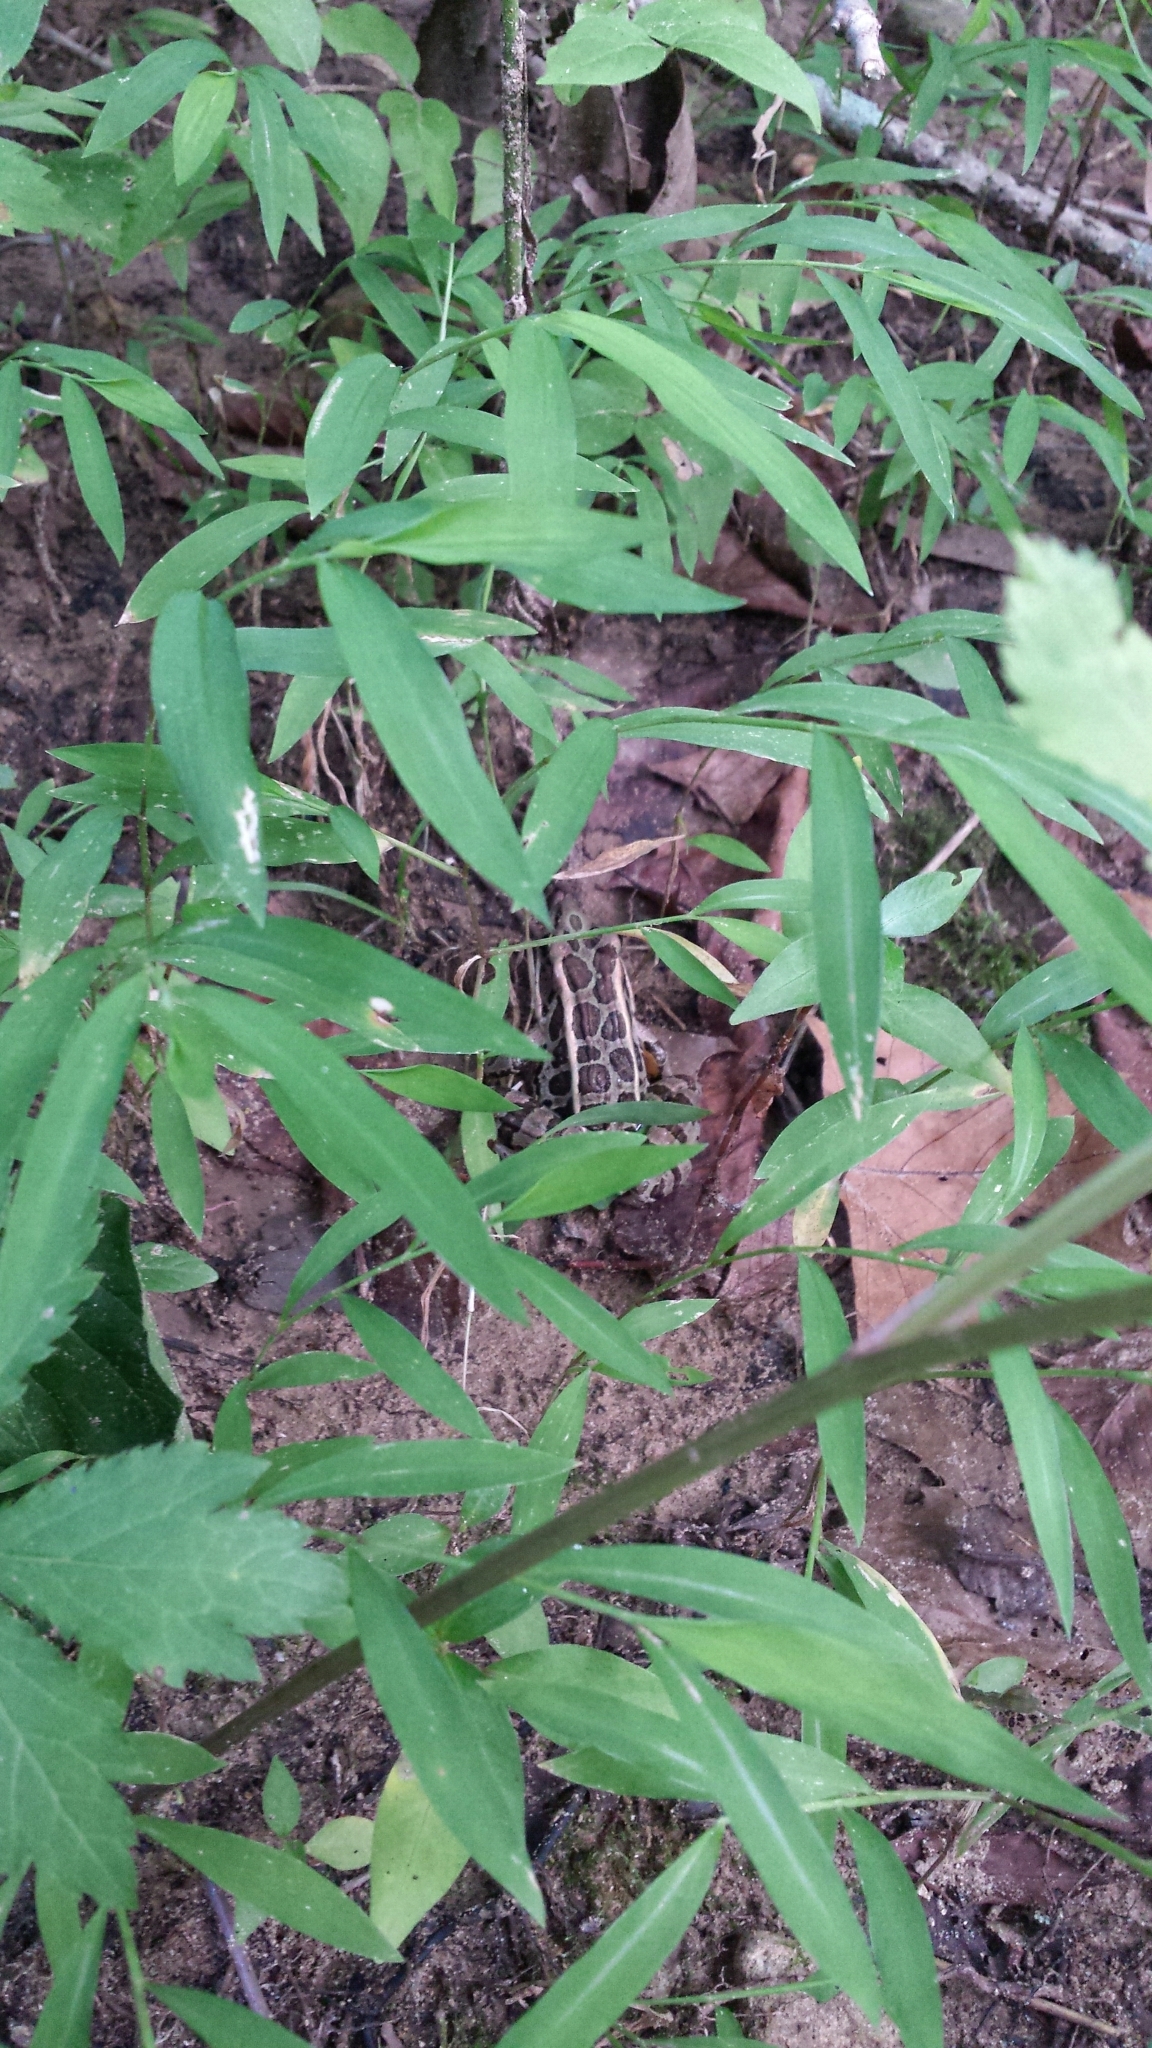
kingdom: Animalia
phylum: Chordata
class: Amphibia
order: Anura
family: Ranidae
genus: Lithobates
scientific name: Lithobates palustris
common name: Pickerel frog
